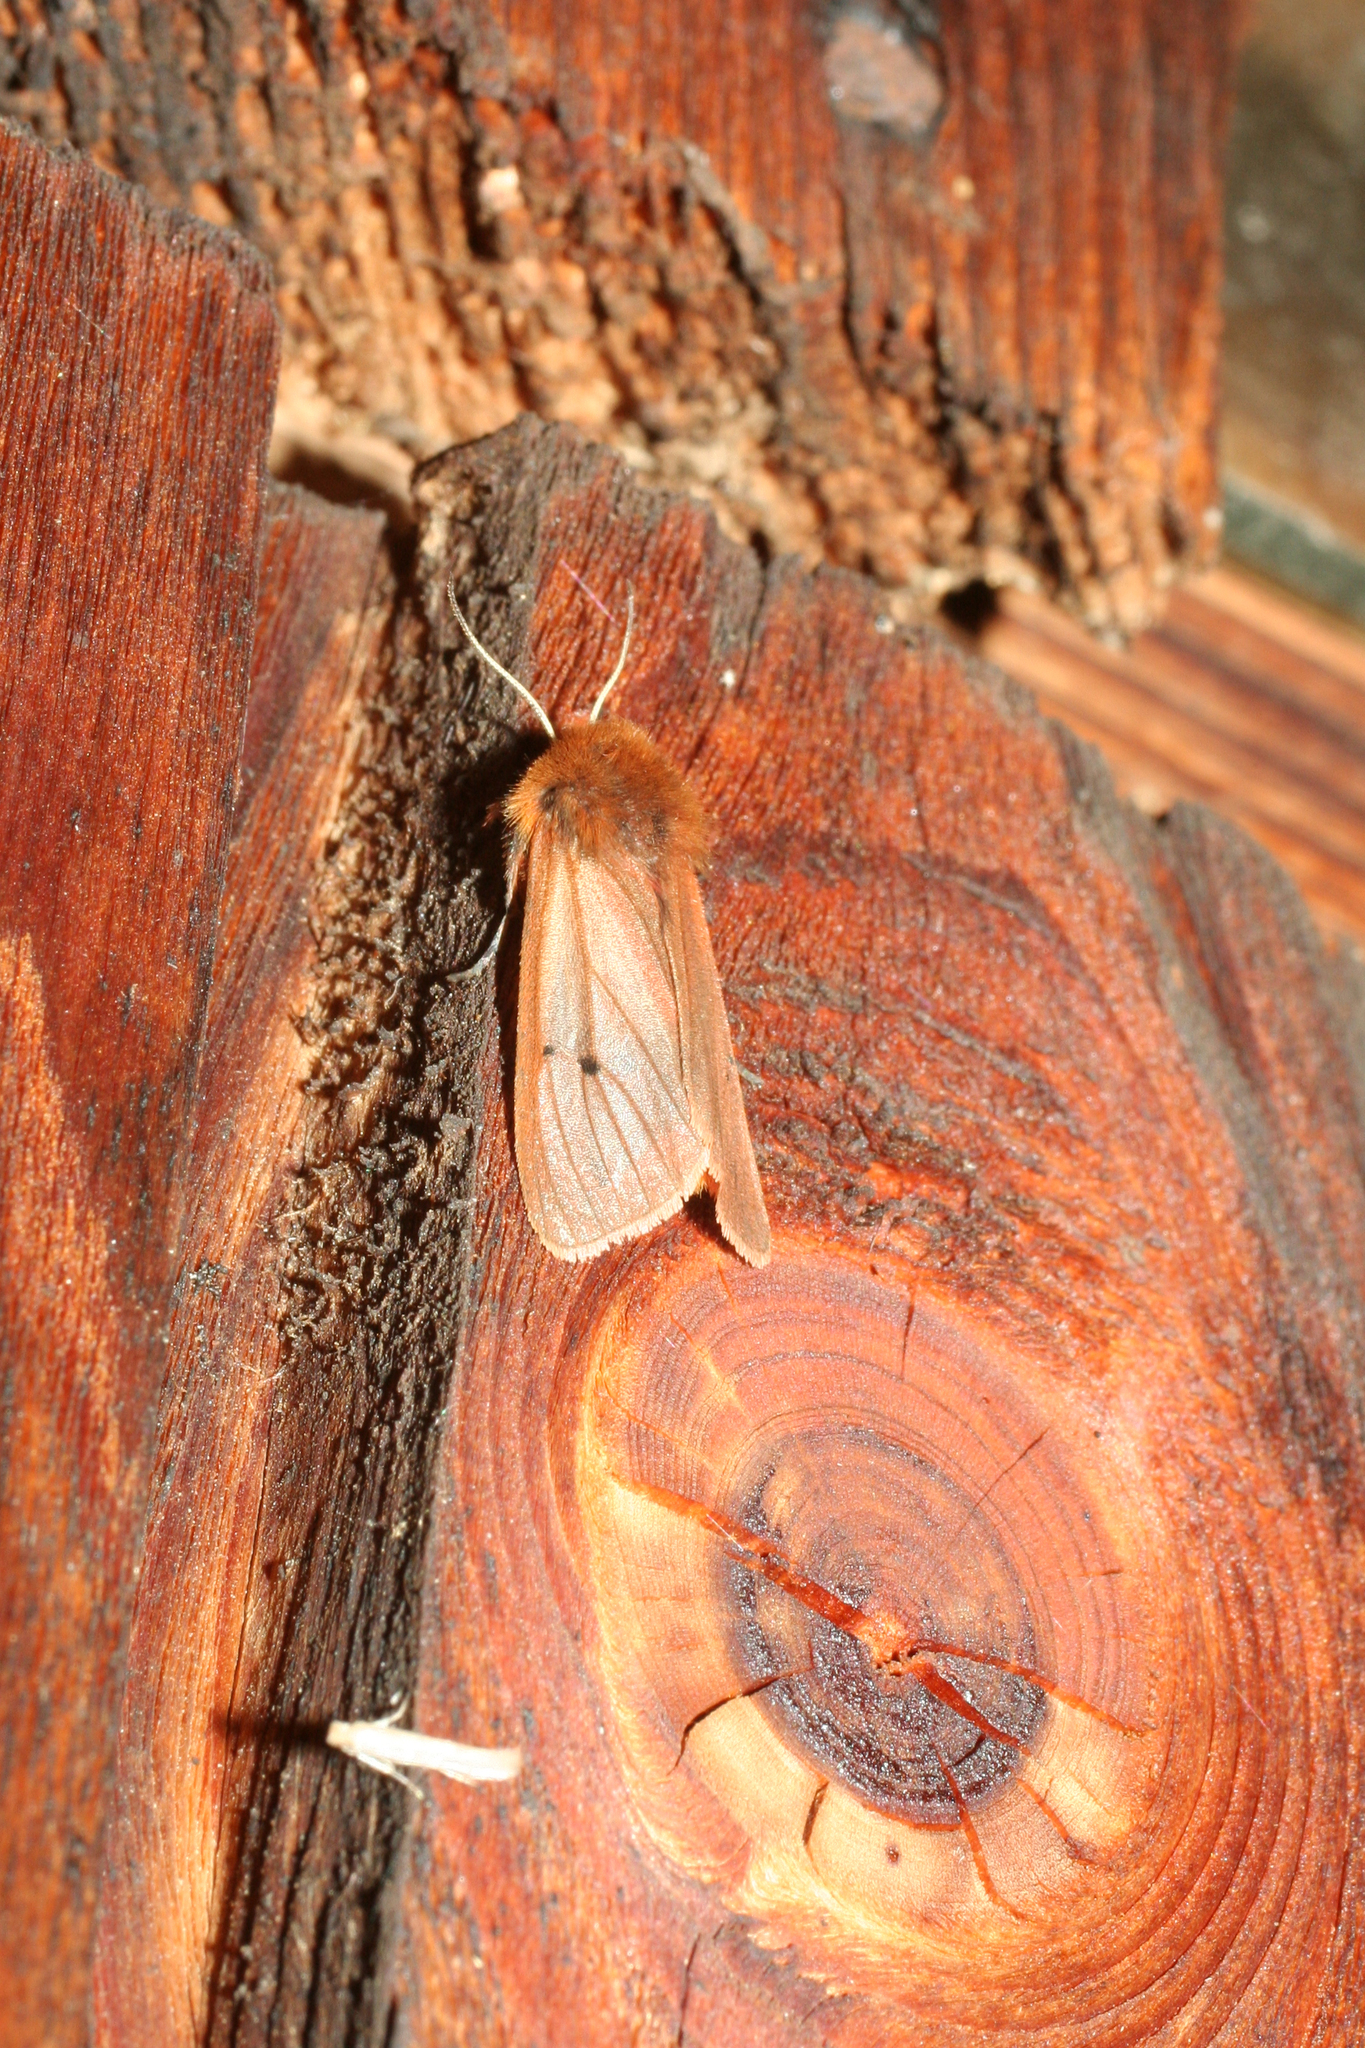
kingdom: Animalia
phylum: Arthropoda
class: Insecta
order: Lepidoptera
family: Erebidae
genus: Phragmatobia
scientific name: Phragmatobia fuliginosa
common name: Ruby tiger
